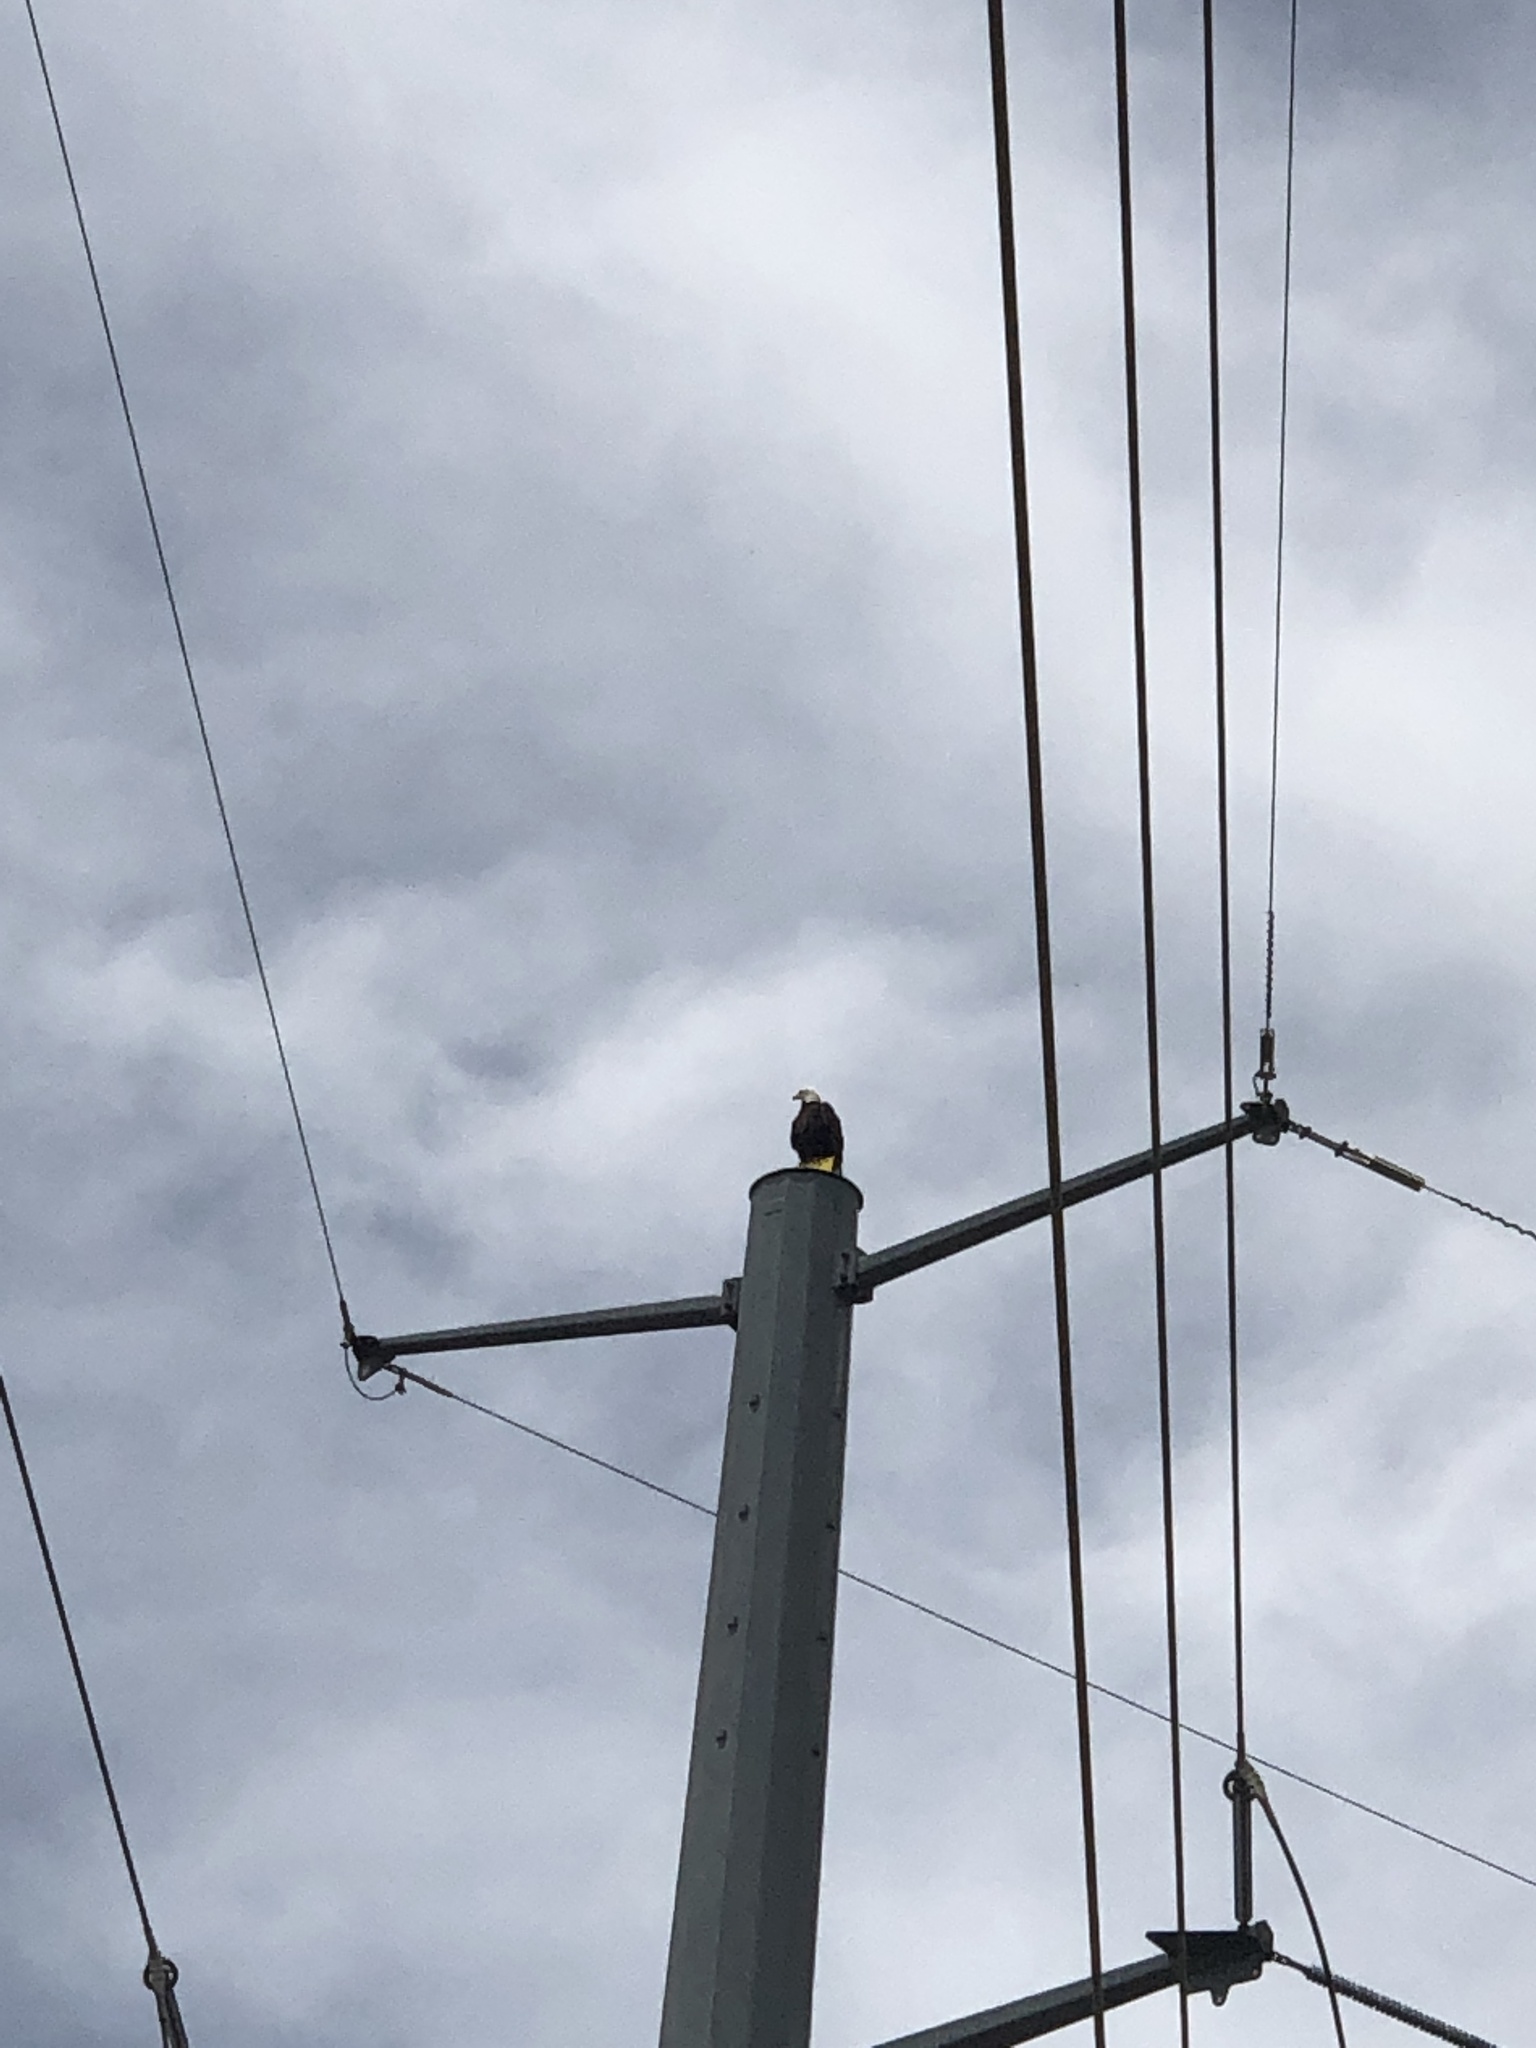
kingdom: Animalia
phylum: Chordata
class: Aves
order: Accipitriformes
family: Accipitridae
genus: Haliaeetus
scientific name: Haliaeetus leucocephalus
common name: Bald eagle
